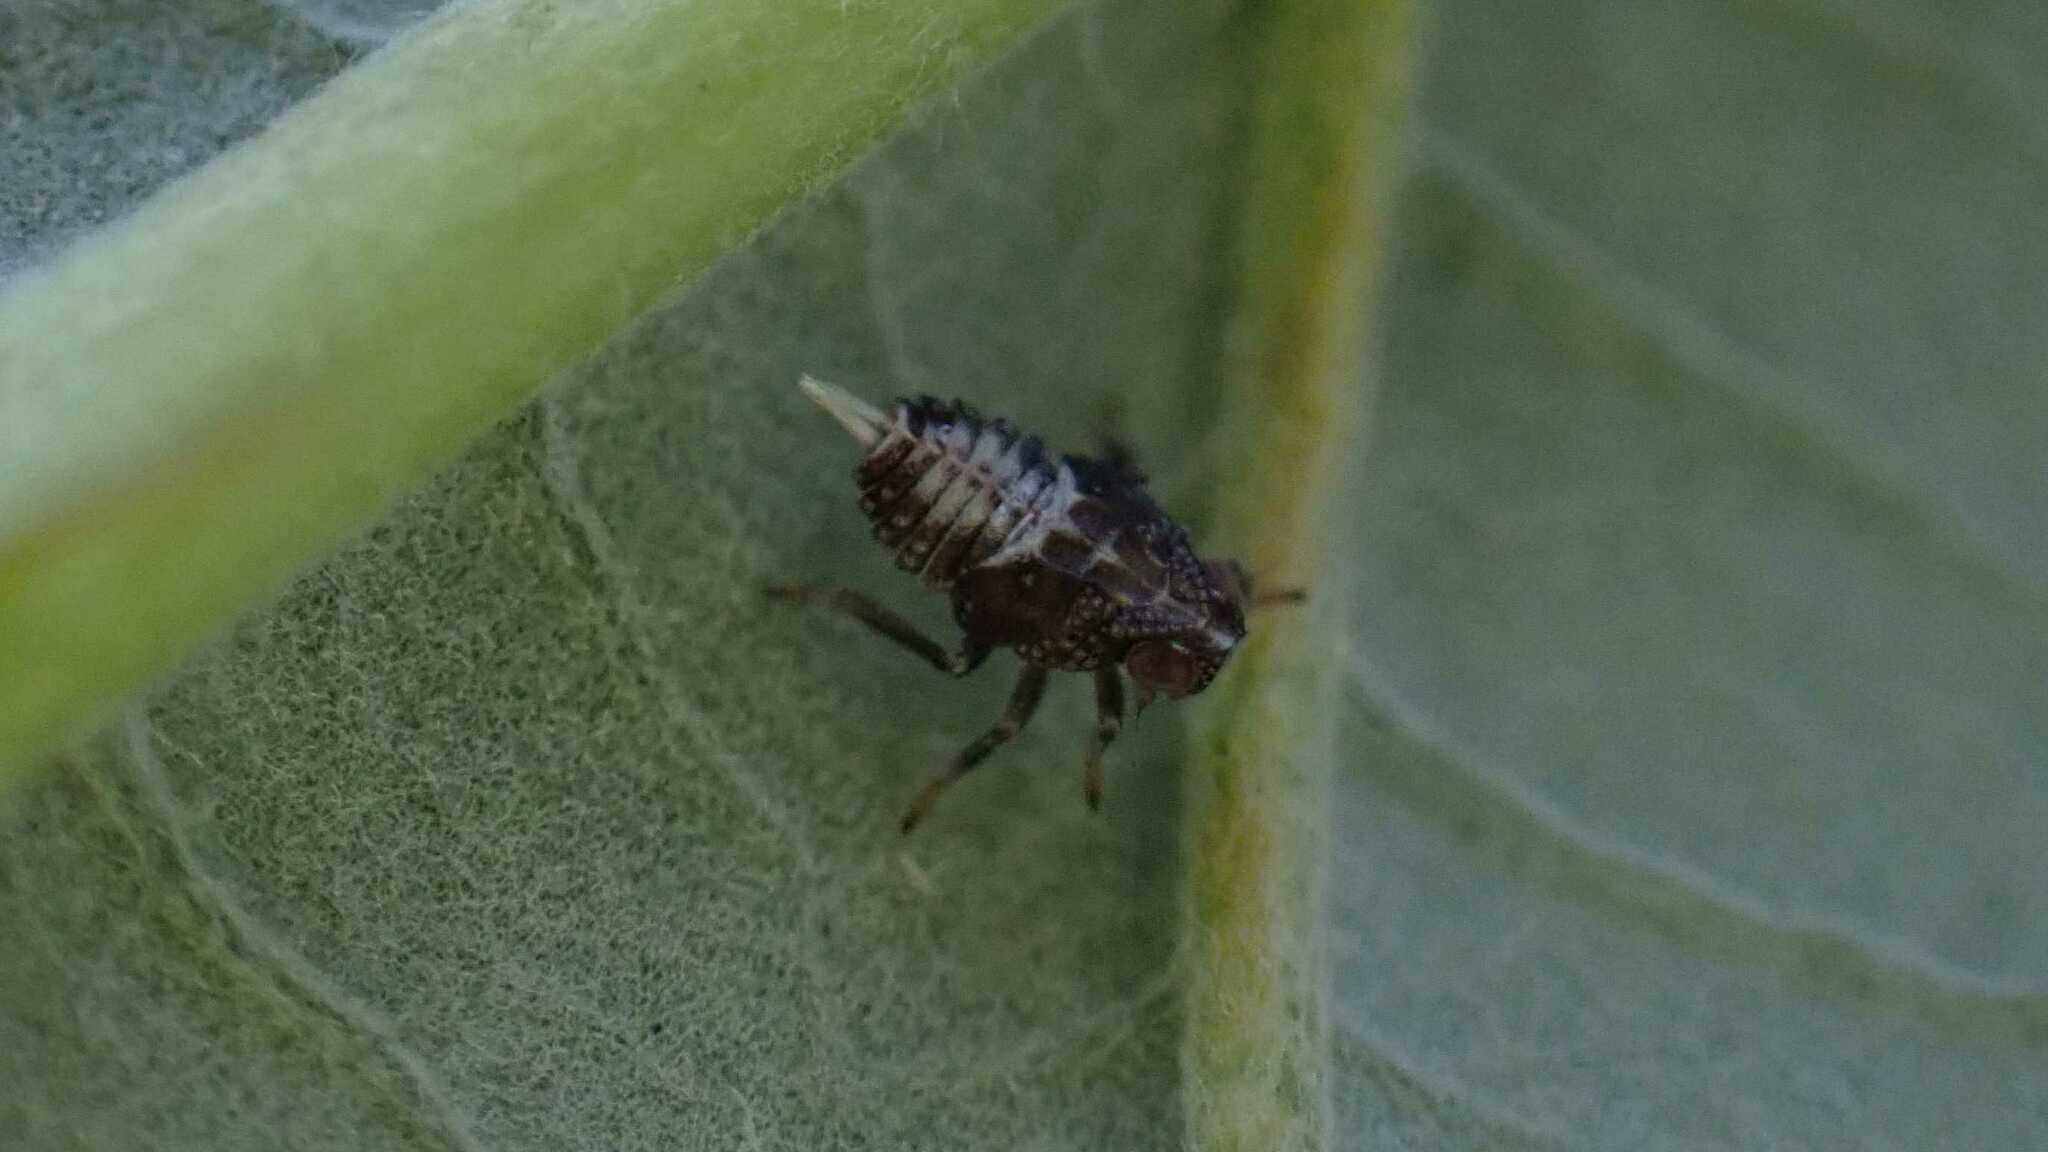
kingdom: Animalia
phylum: Arthropoda
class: Insecta
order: Hemiptera
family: Issidae
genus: Issus
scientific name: Issus coleoptratus
